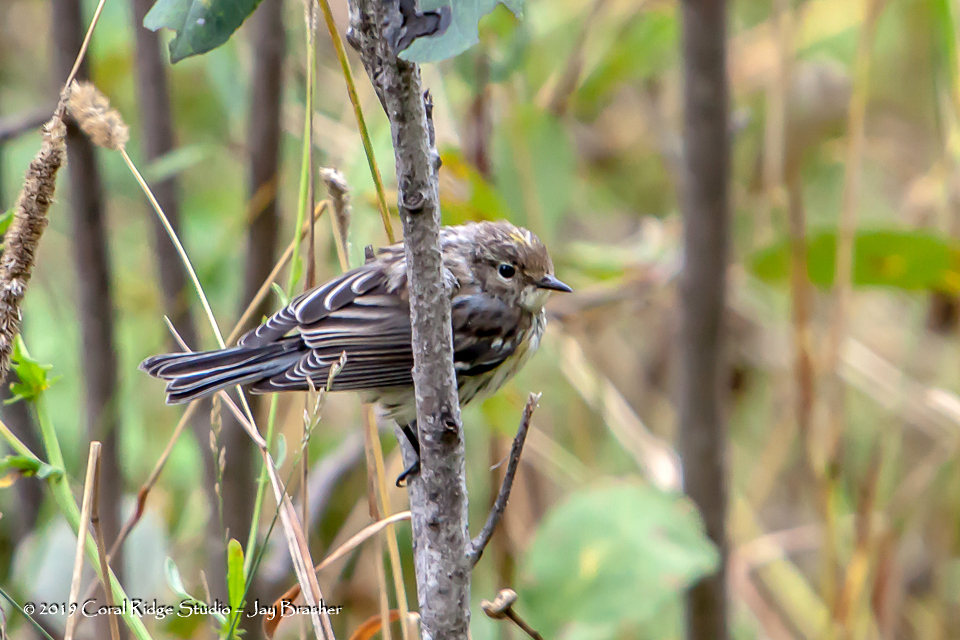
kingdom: Animalia
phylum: Chordata
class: Aves
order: Passeriformes
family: Parulidae
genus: Setophaga
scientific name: Setophaga coronata
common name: Myrtle warbler
